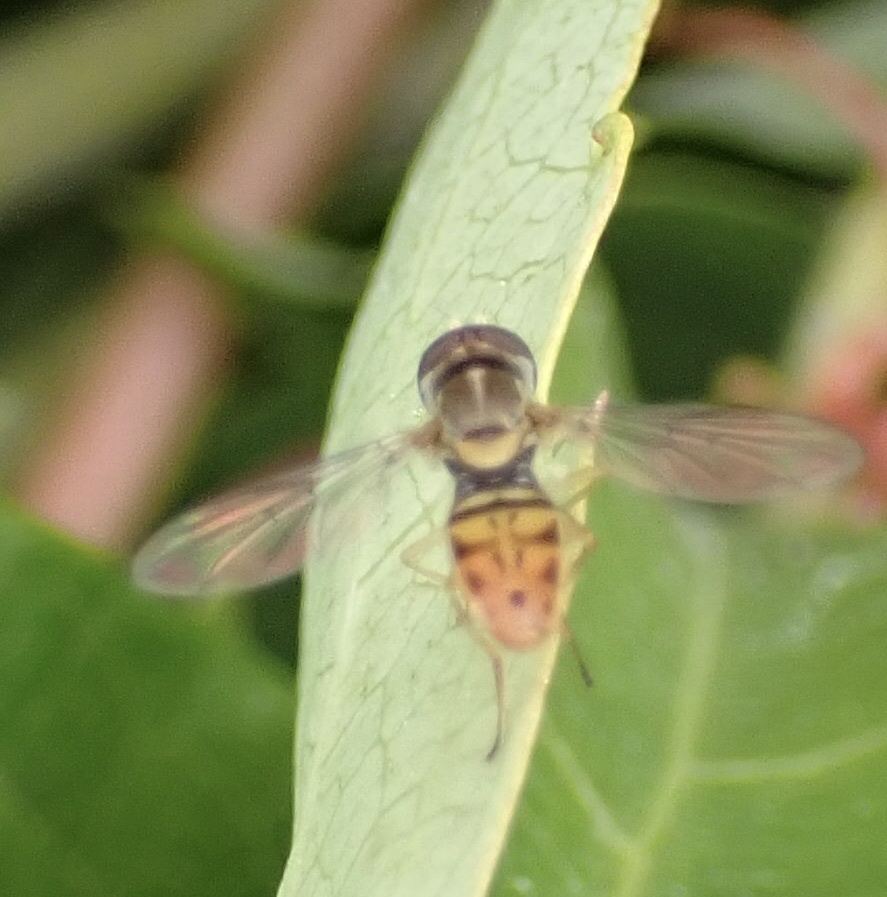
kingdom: Animalia
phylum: Arthropoda
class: Insecta
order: Diptera
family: Syrphidae
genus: Toxomerus
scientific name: Toxomerus marginatus
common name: Syrphid fly
